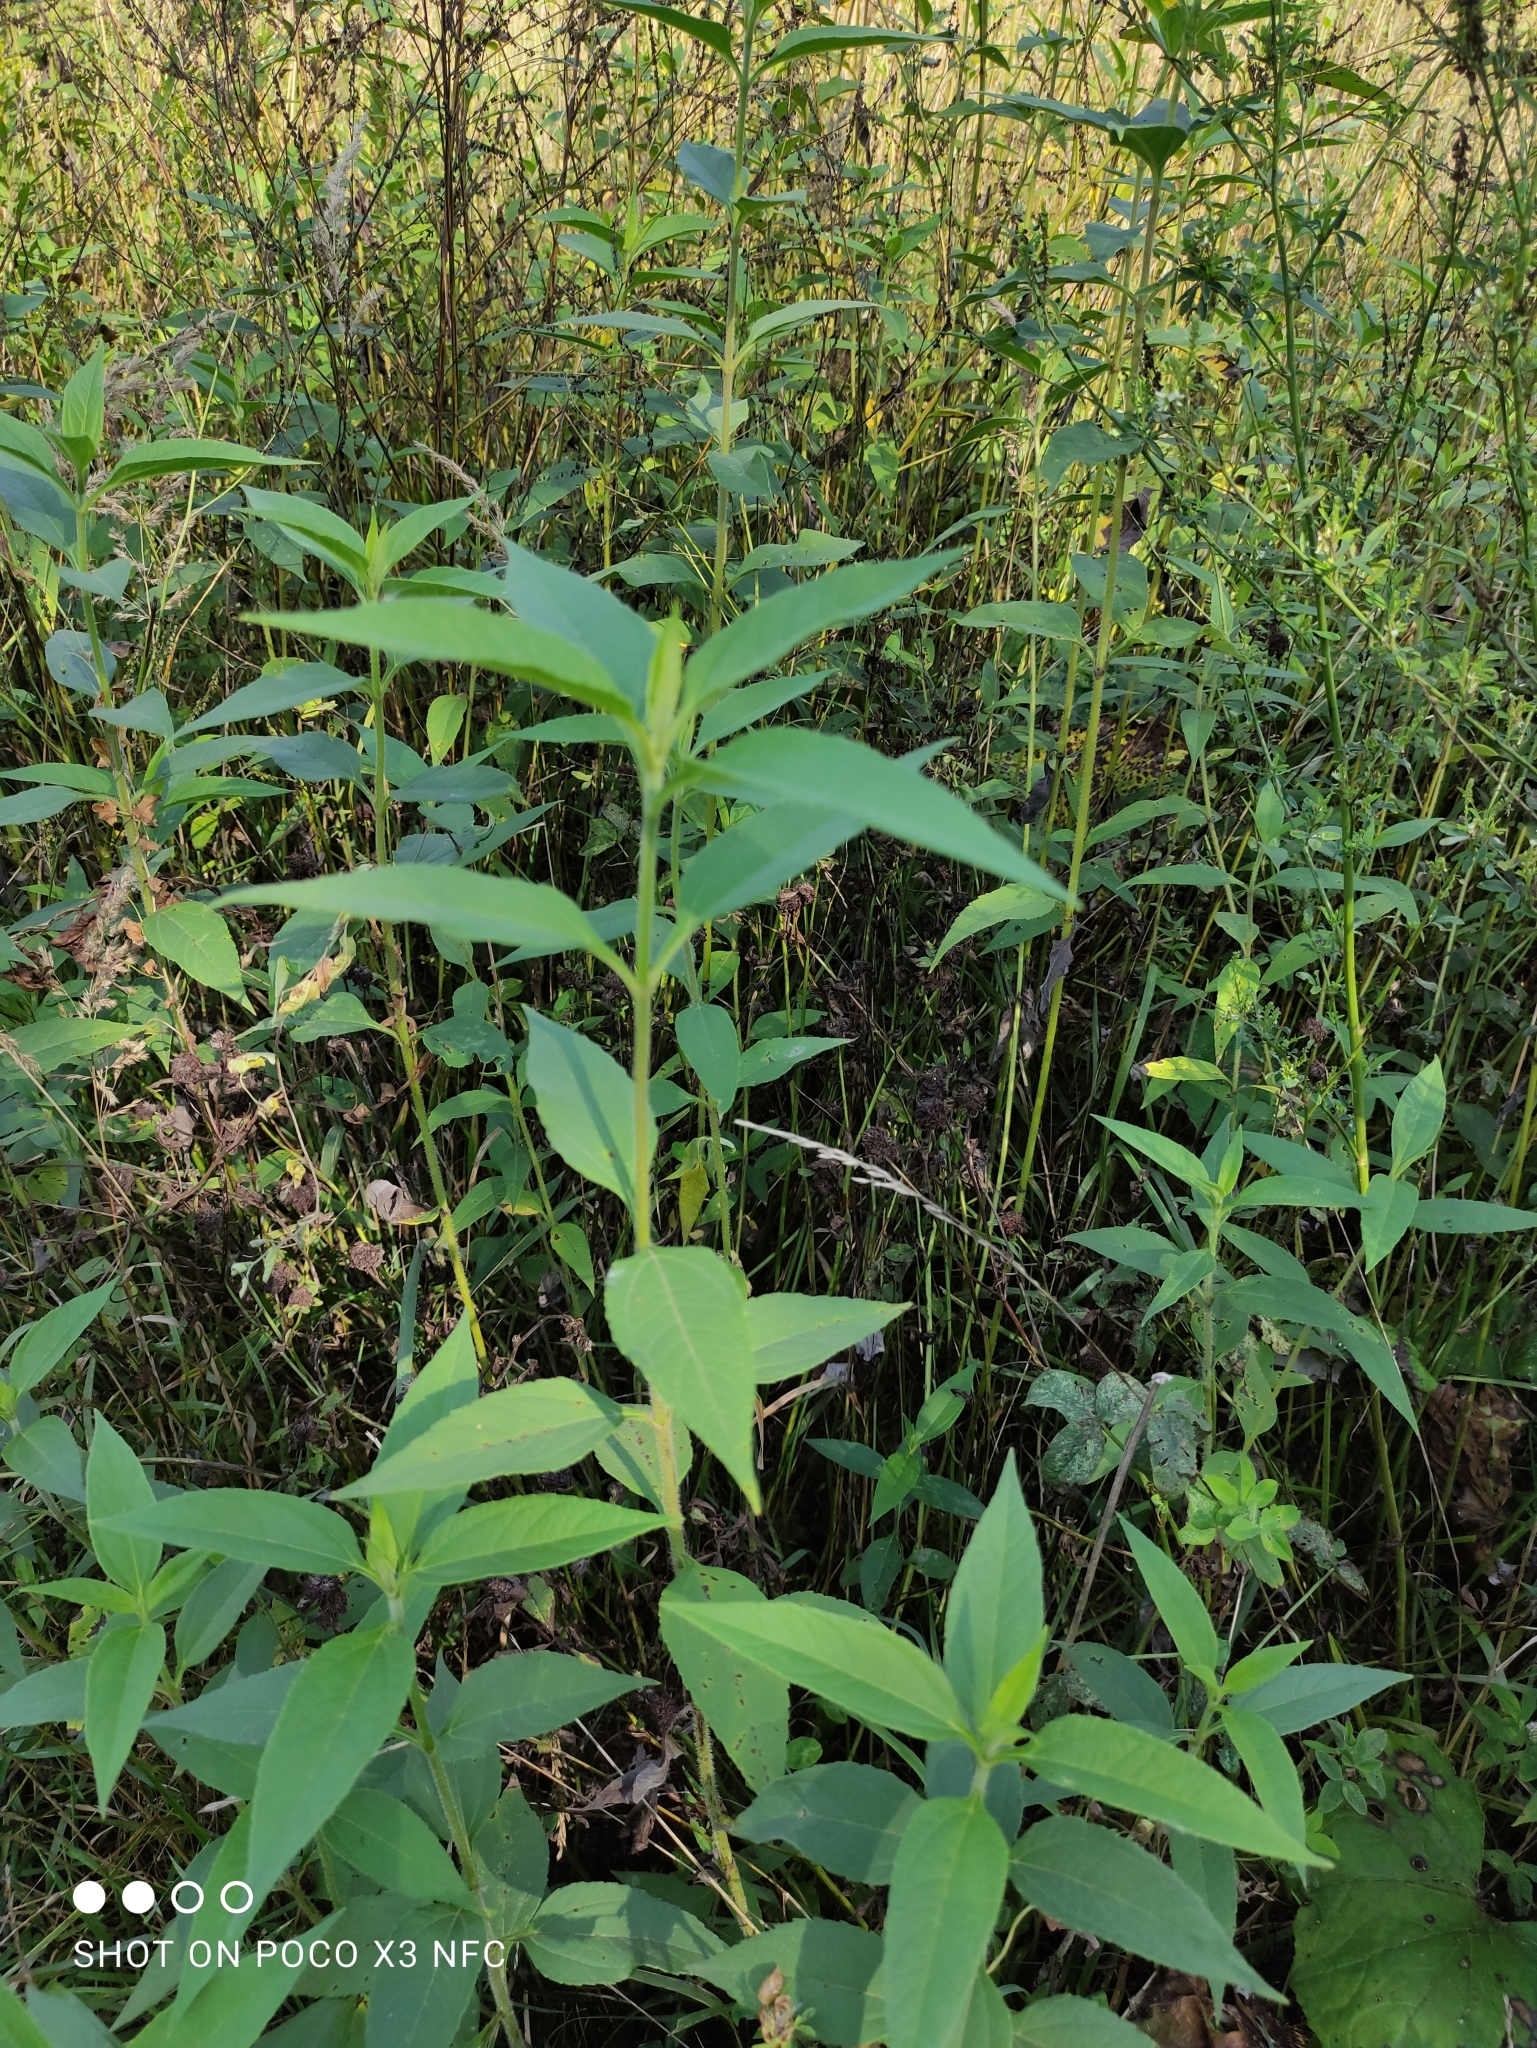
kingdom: Plantae
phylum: Tracheophyta
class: Magnoliopsida
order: Asterales
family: Asteraceae
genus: Helianthus
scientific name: Helianthus tuberosus
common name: Jerusalem artichoke
